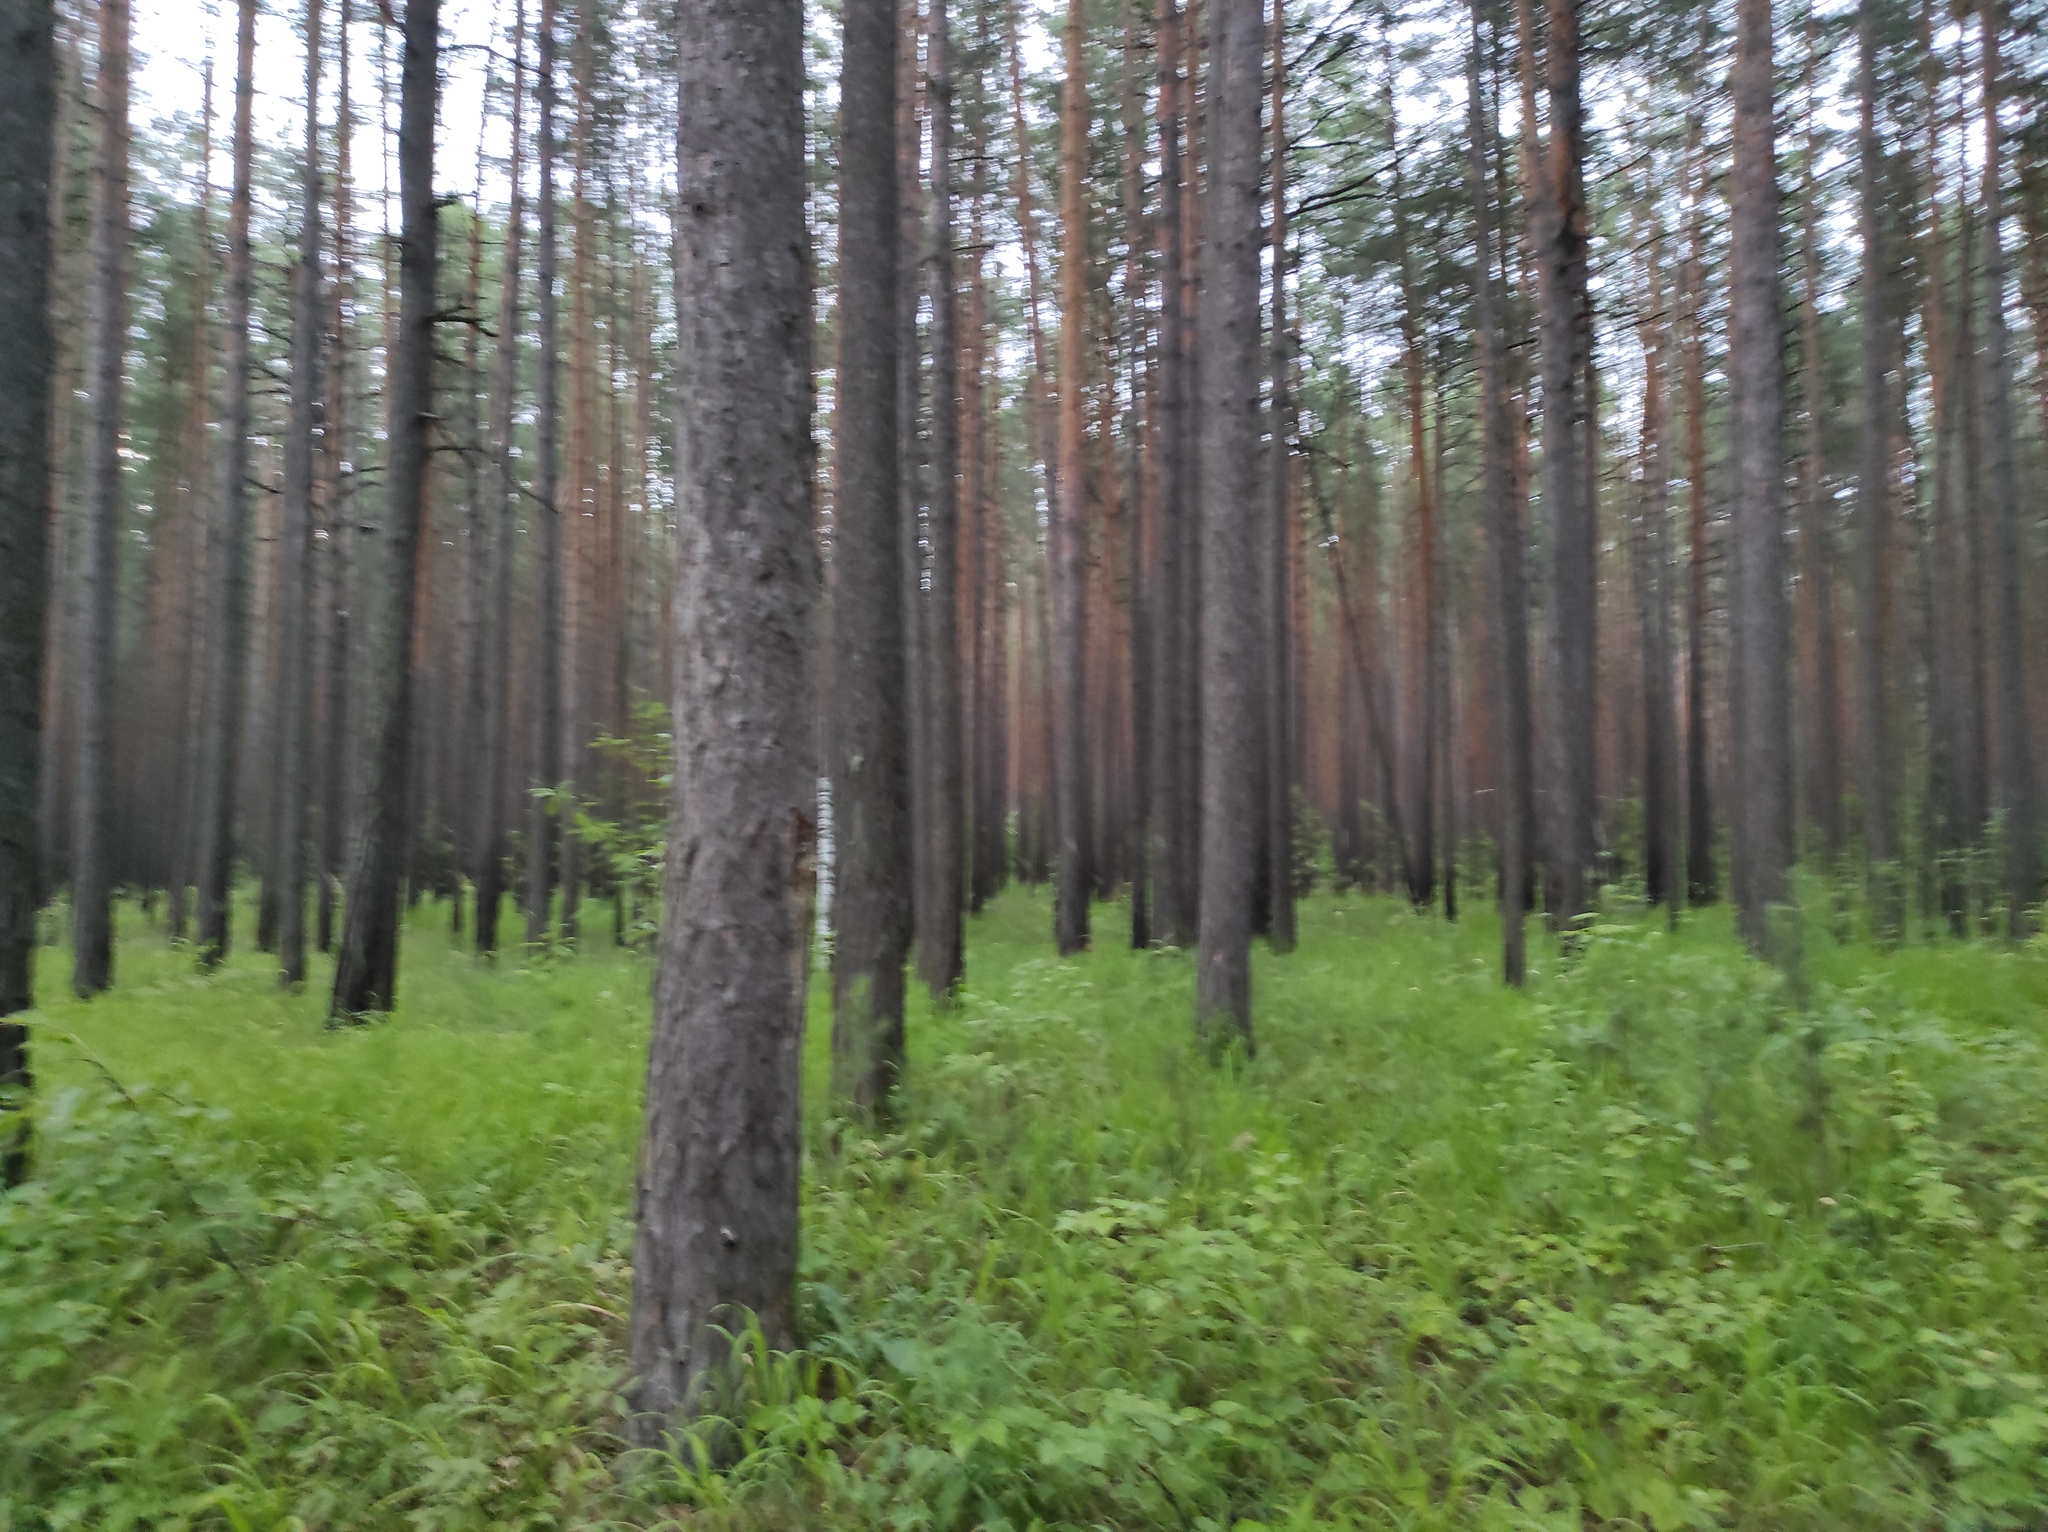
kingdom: Plantae
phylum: Tracheophyta
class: Pinopsida
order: Pinales
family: Pinaceae
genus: Pinus
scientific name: Pinus sylvestris
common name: Scots pine
